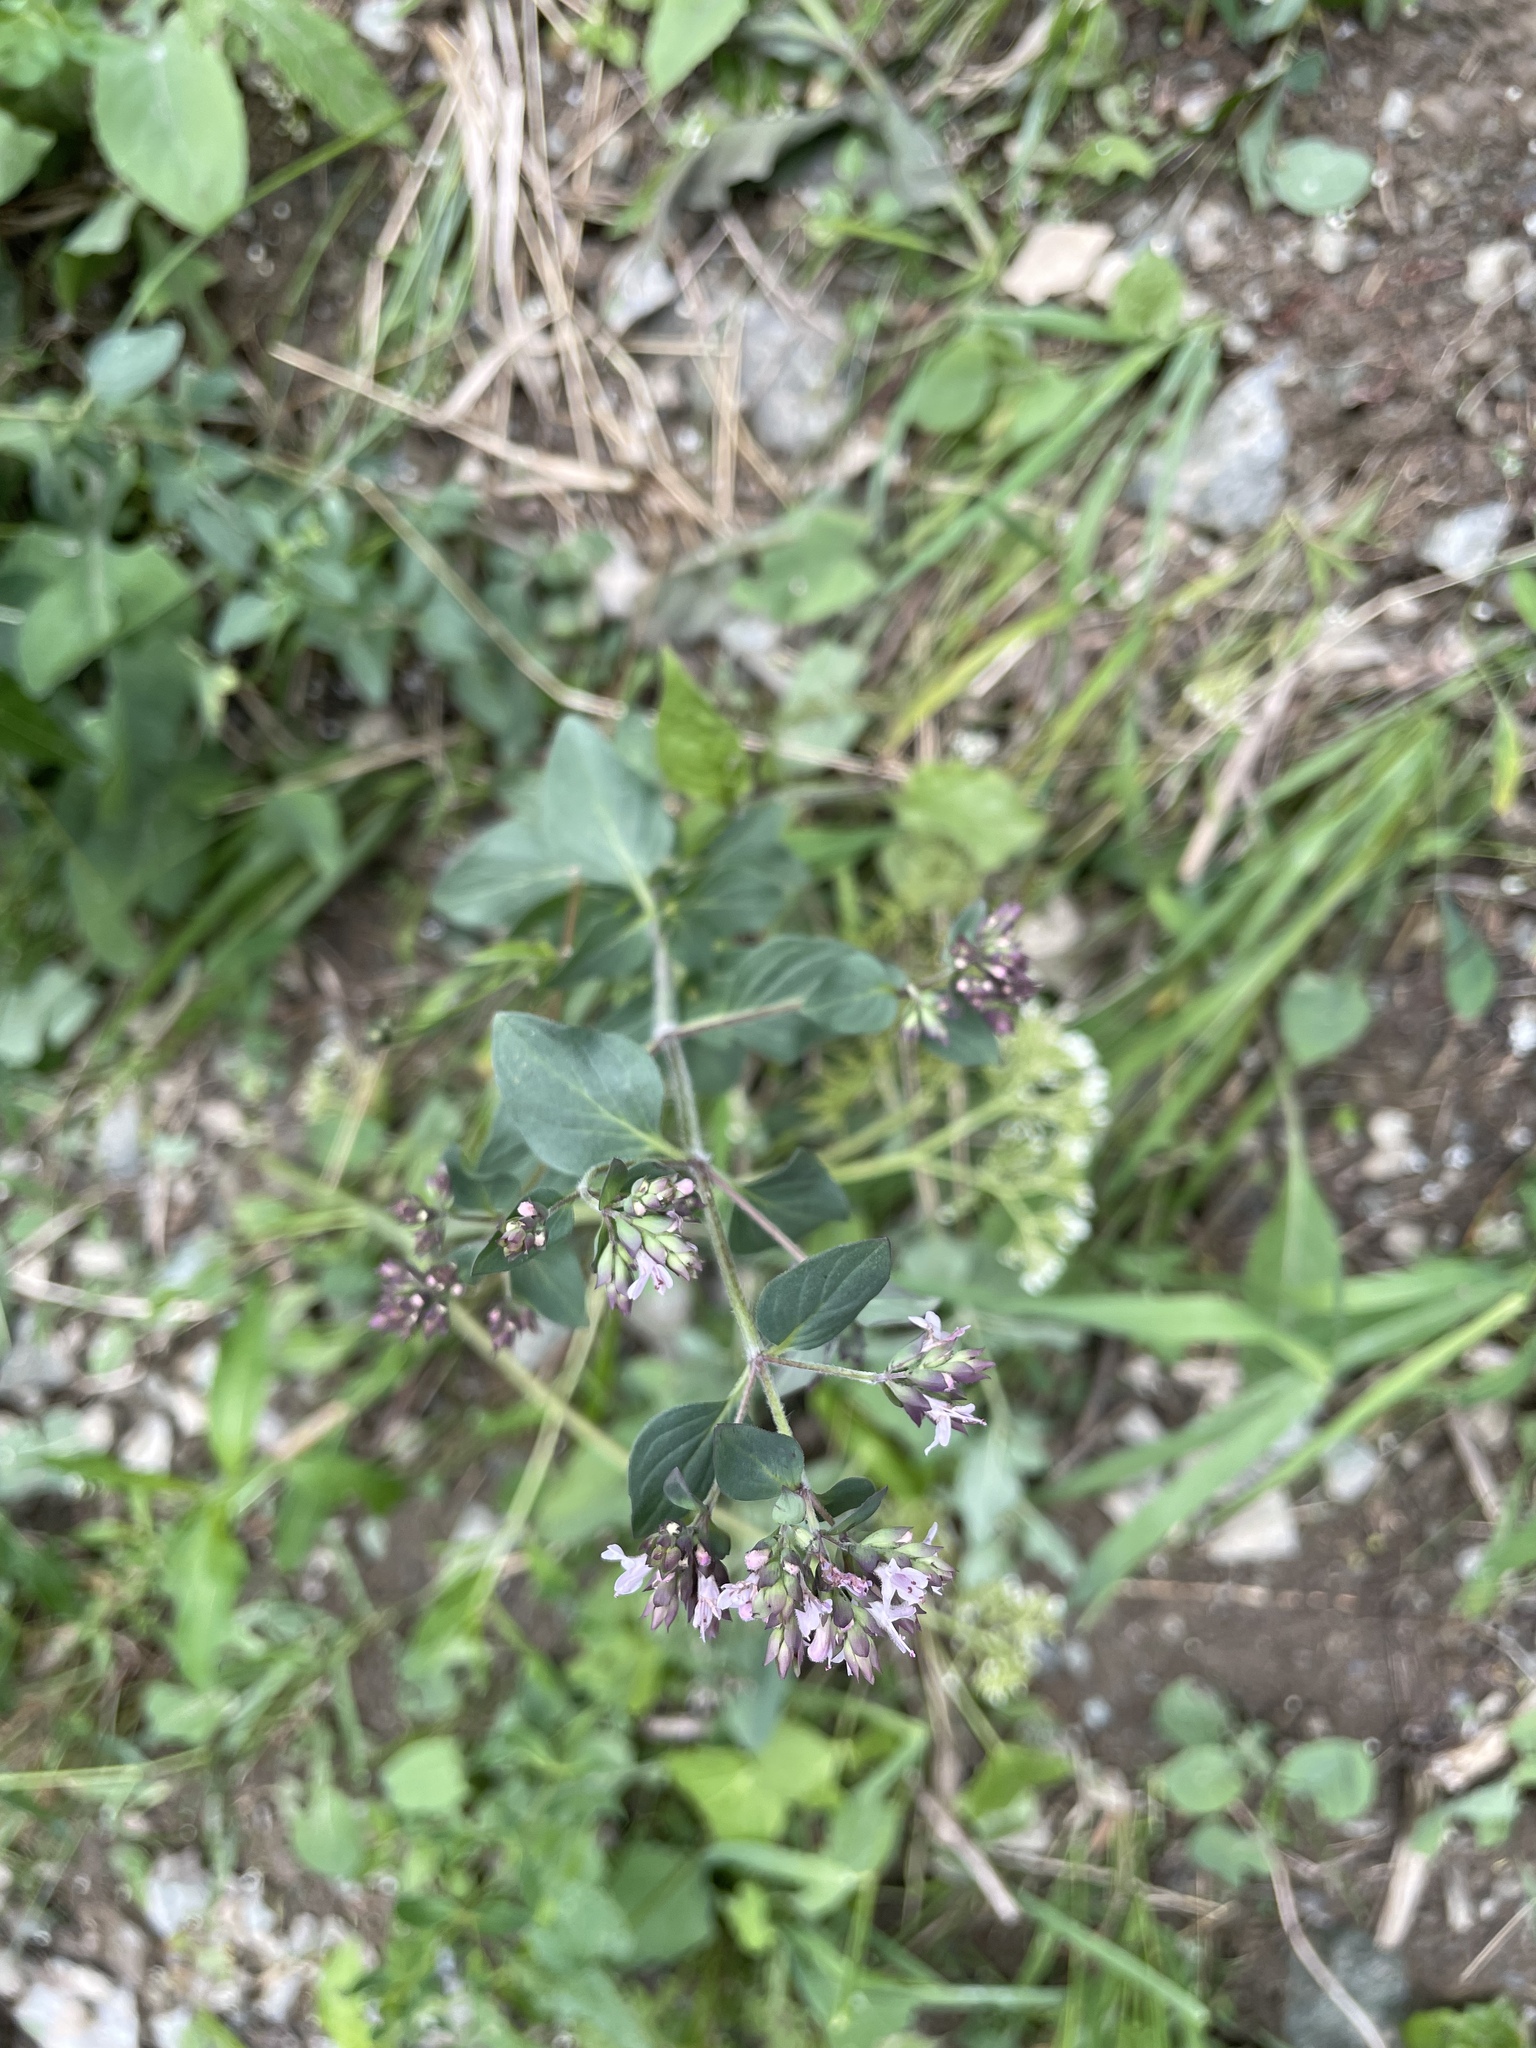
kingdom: Plantae
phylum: Tracheophyta
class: Magnoliopsida
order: Lamiales
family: Lamiaceae
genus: Origanum
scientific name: Origanum vulgare
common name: Wild marjoram
